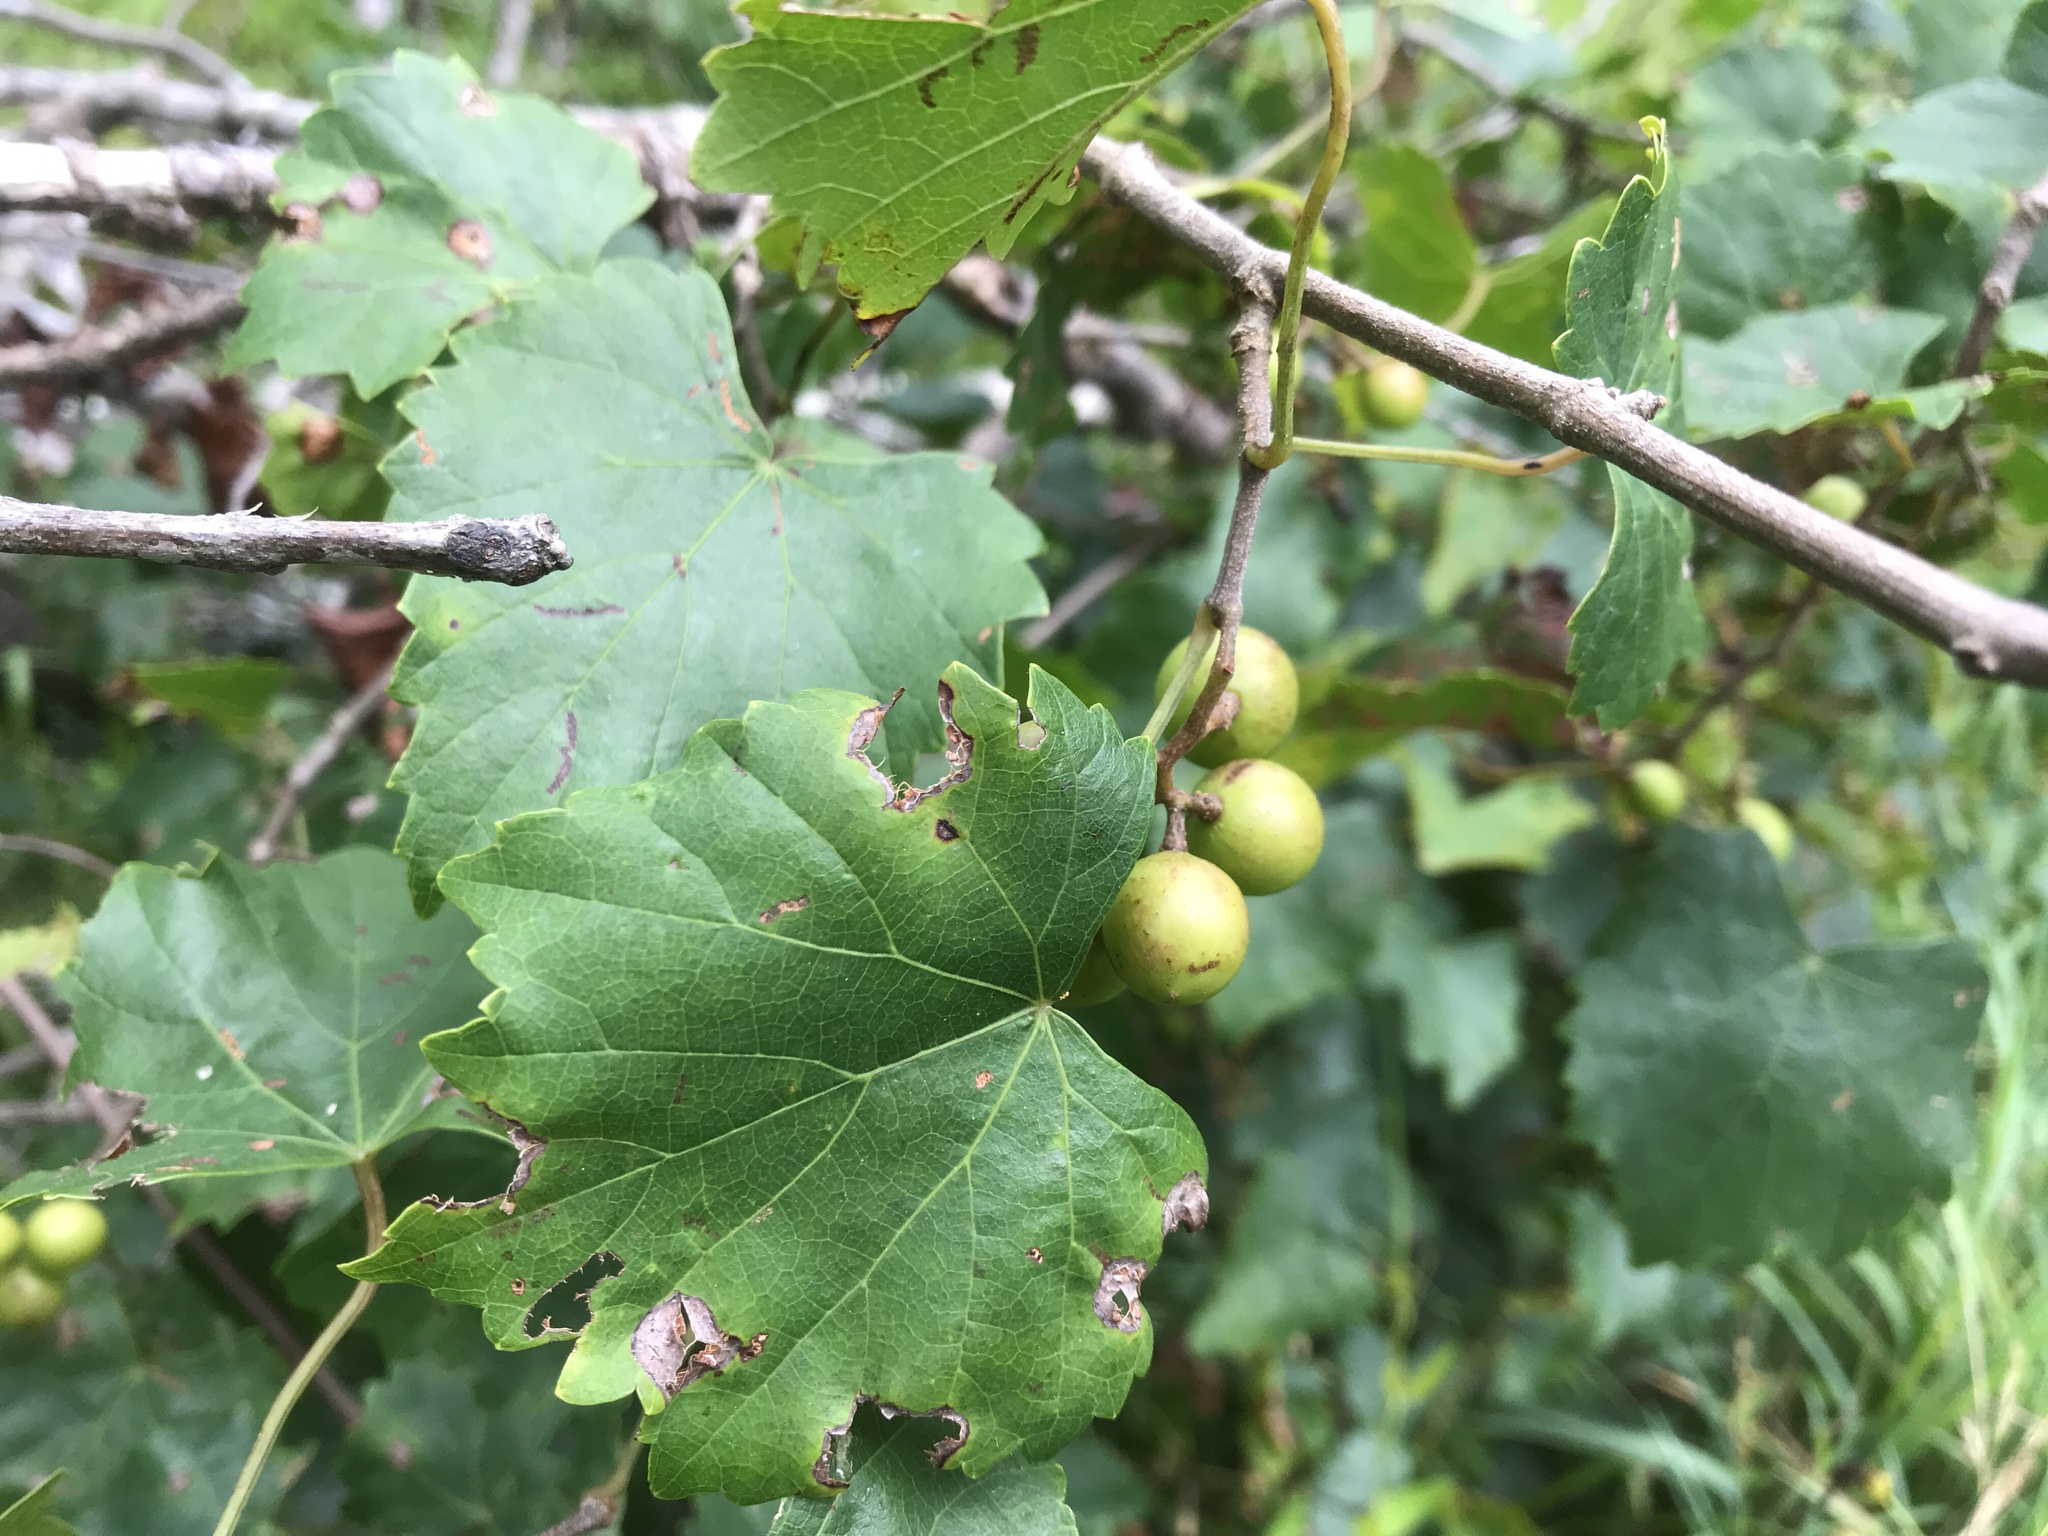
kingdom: Plantae
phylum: Tracheophyta
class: Magnoliopsida
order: Vitales
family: Vitaceae
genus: Vitis
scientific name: Vitis rotundifolia
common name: Muscadine grape
